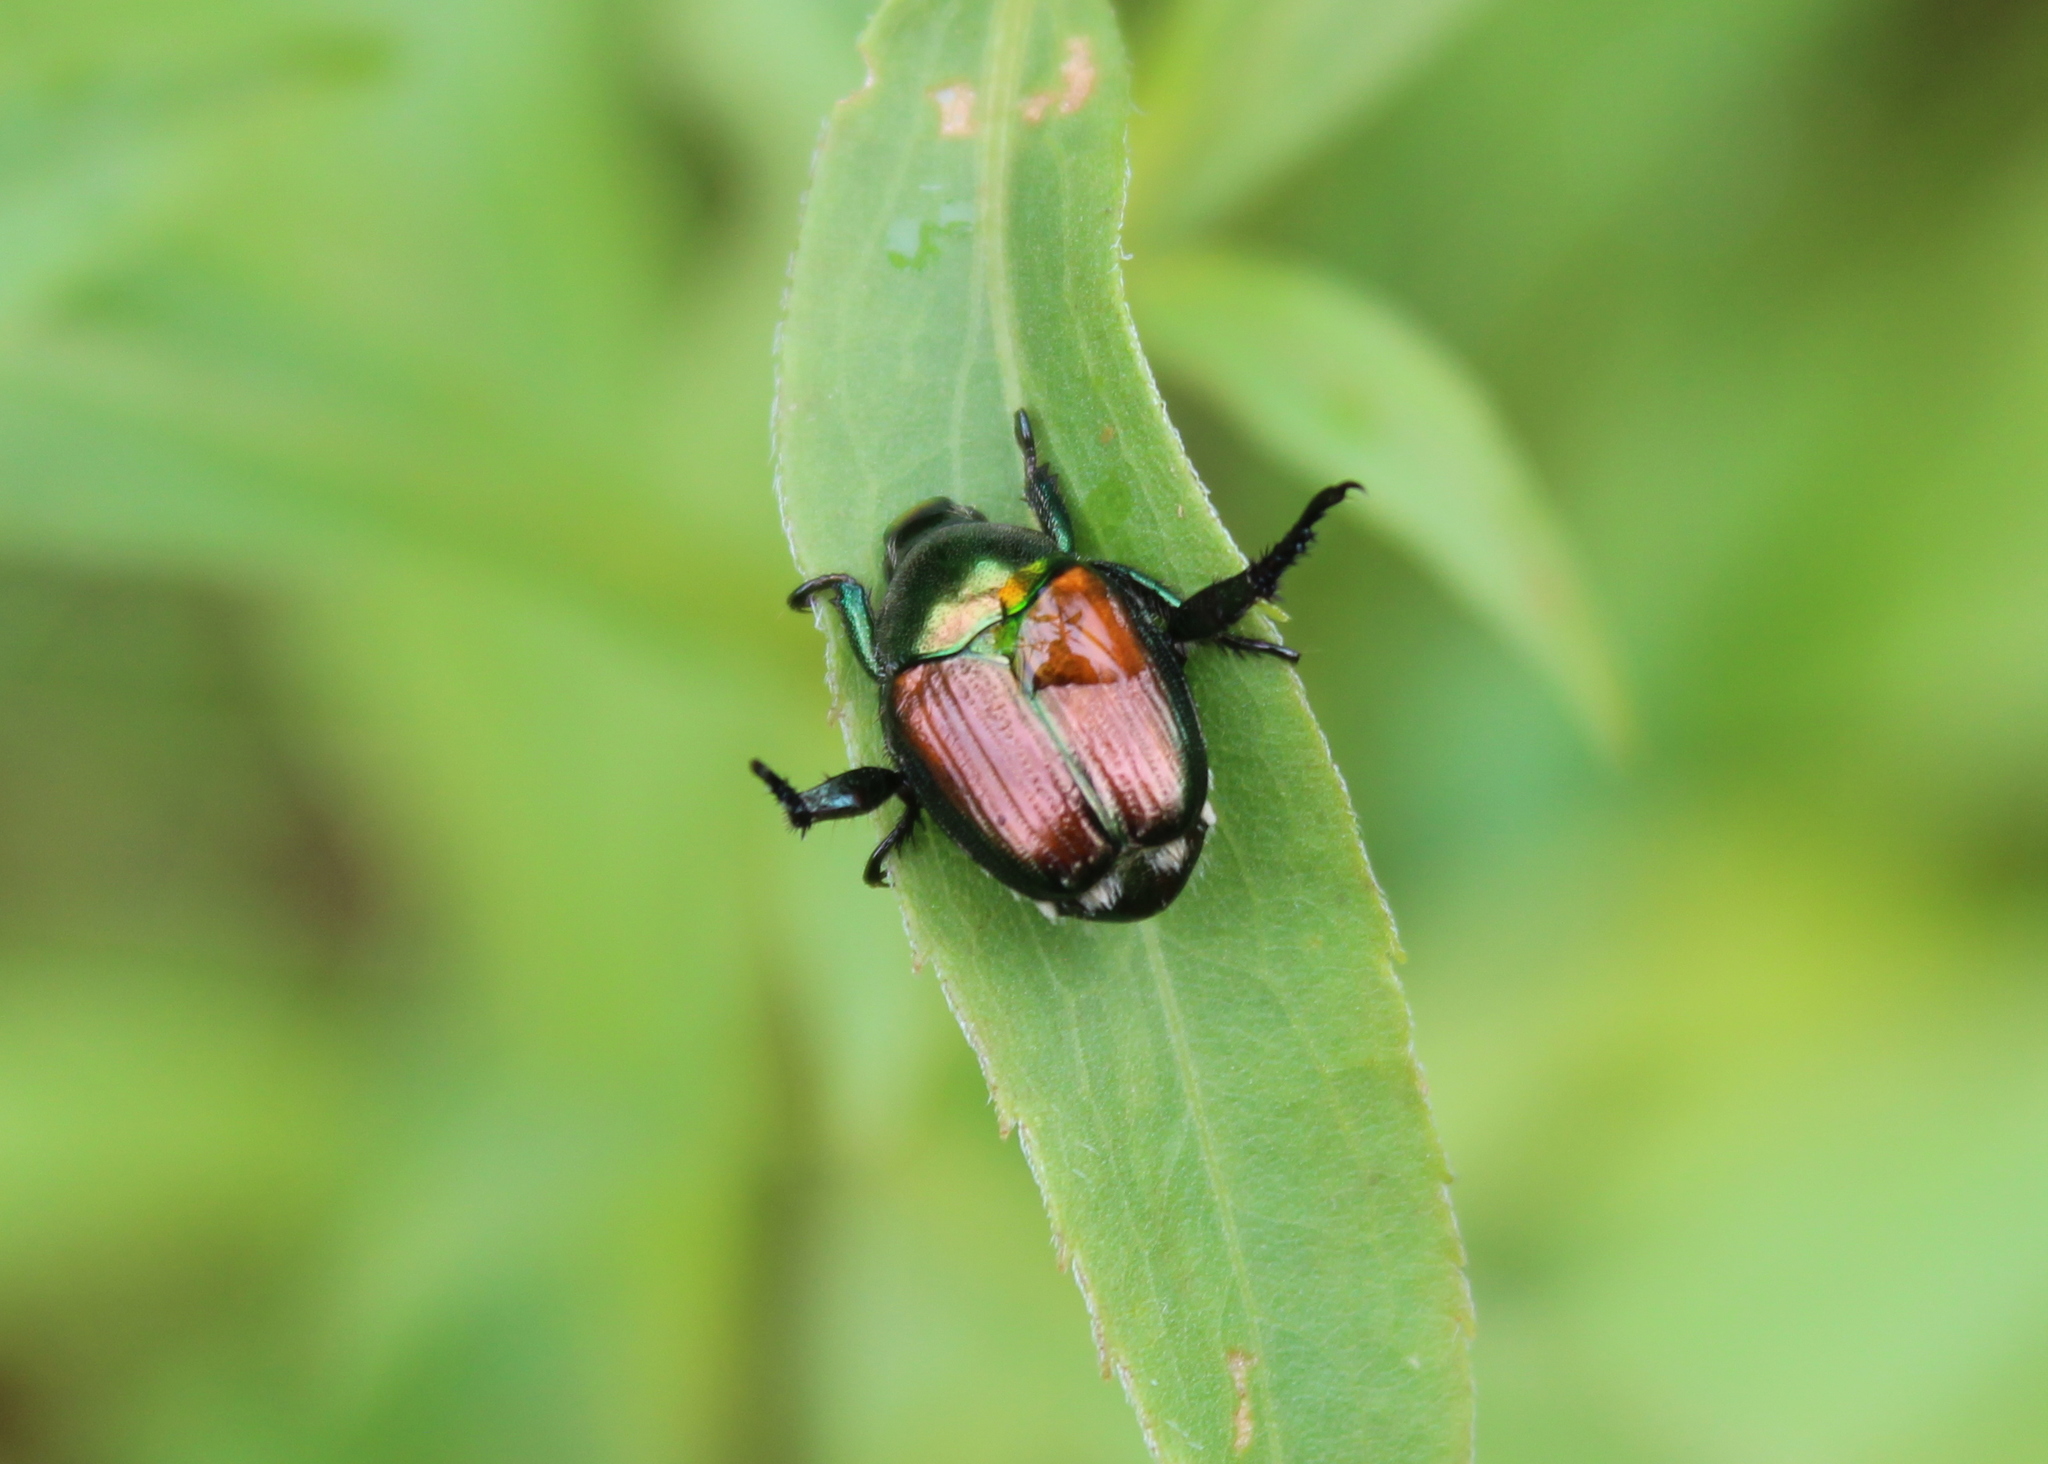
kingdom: Animalia
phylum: Arthropoda
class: Insecta
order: Coleoptera
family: Scarabaeidae
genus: Popillia
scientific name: Popillia japonica
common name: Japanese beetle
